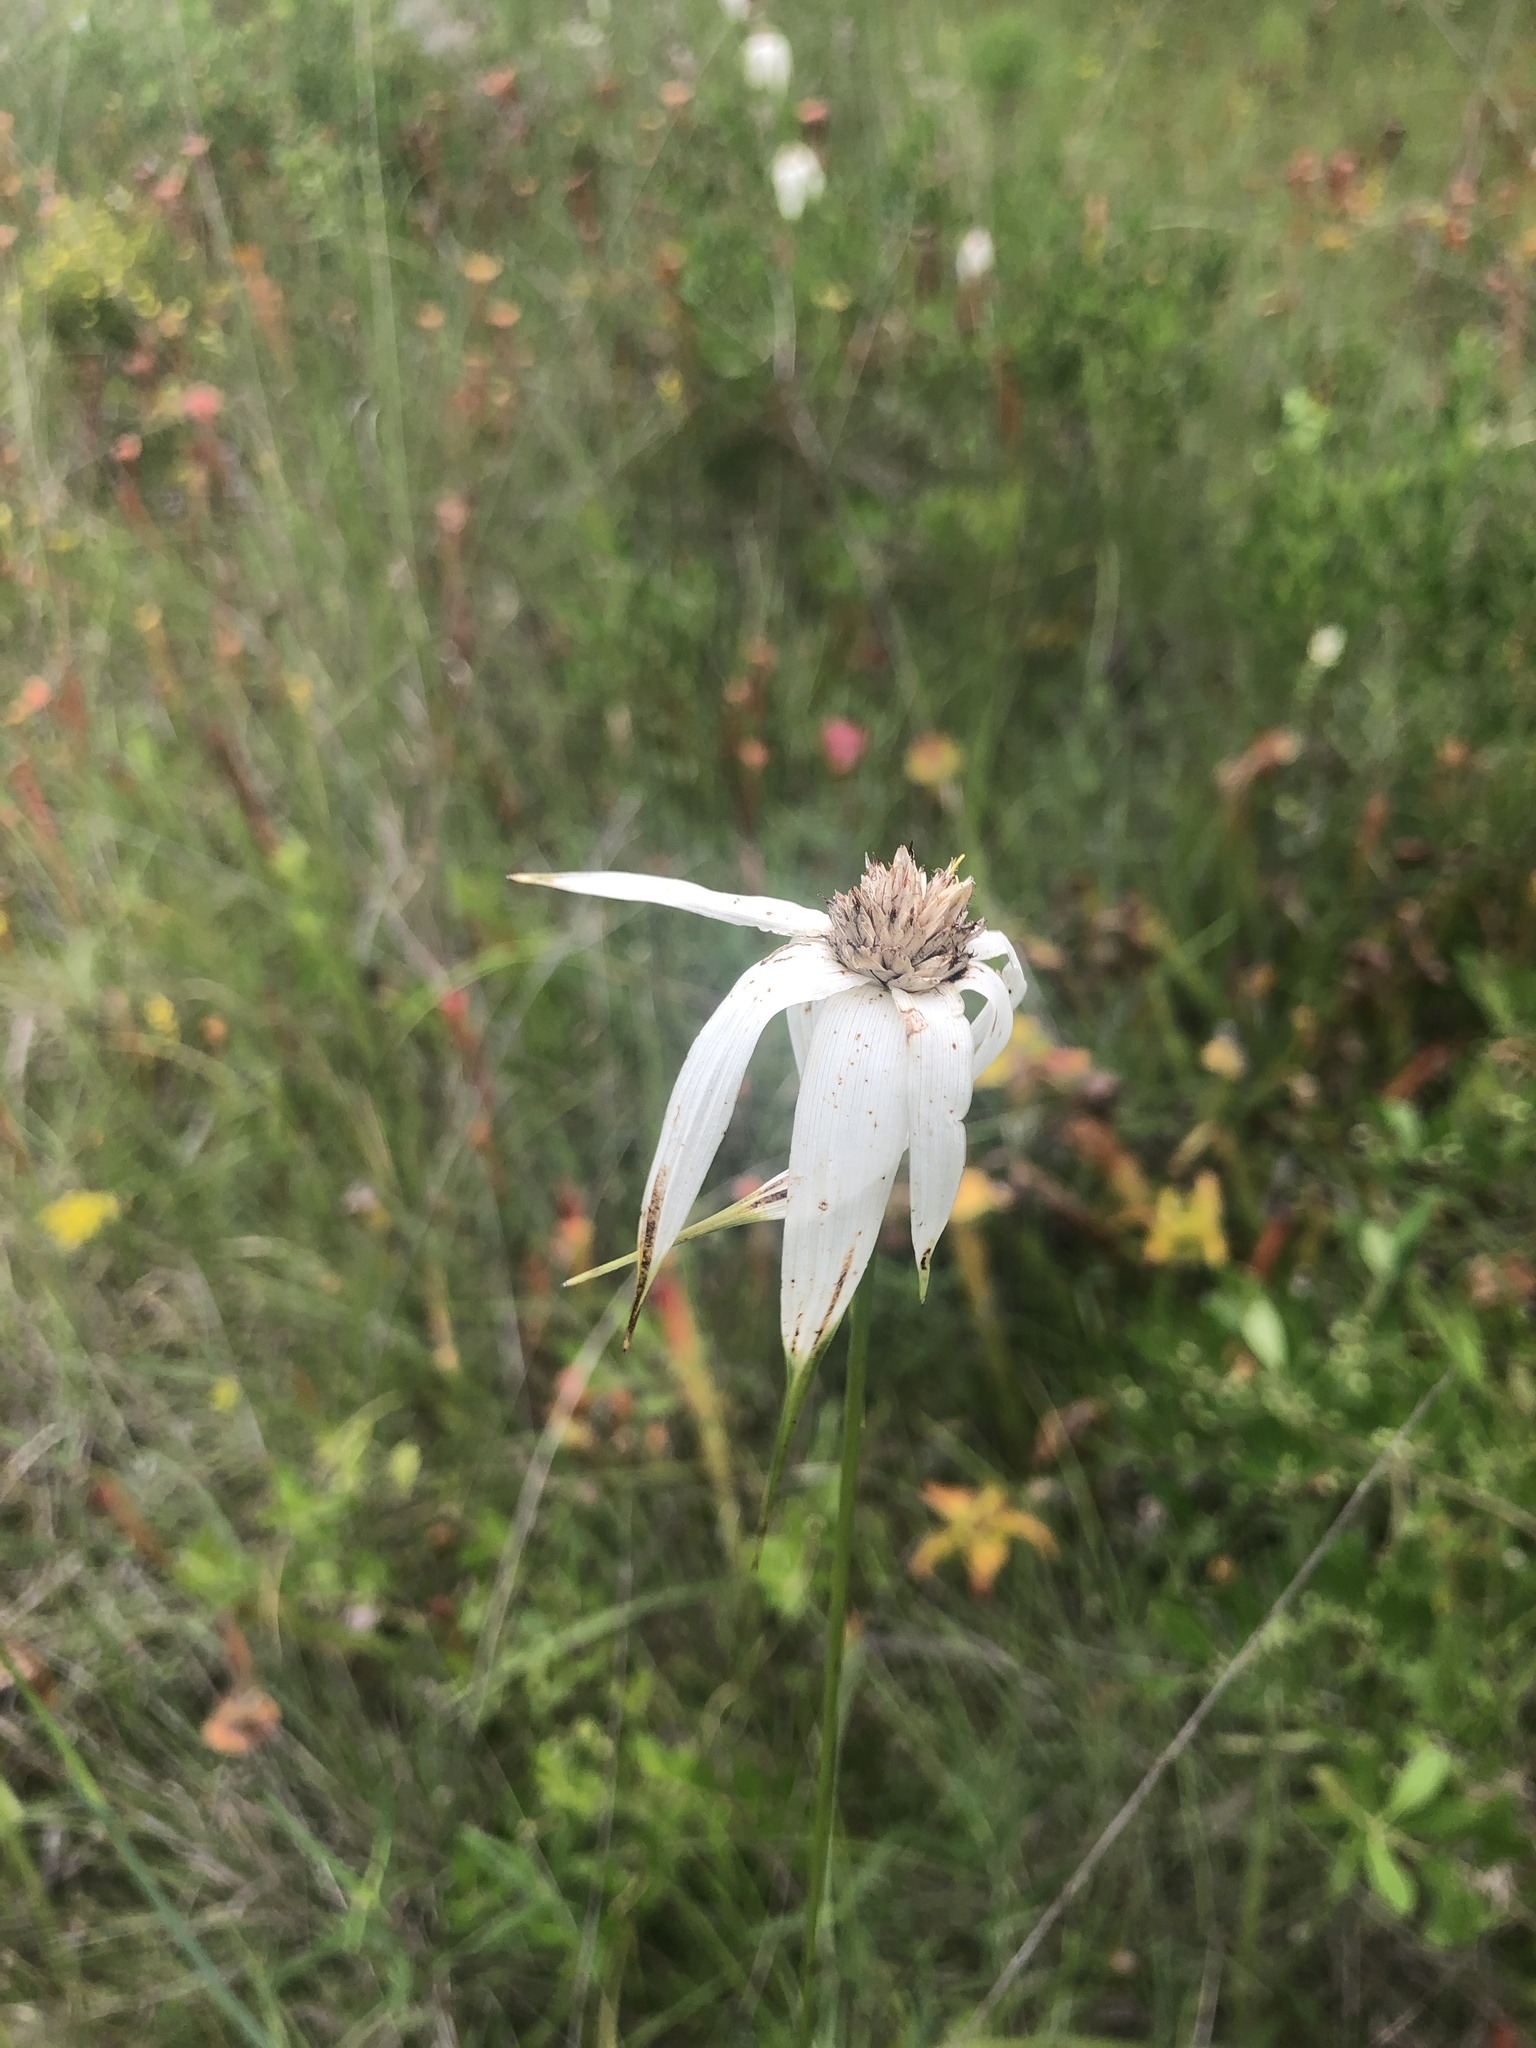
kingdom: Plantae
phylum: Tracheophyta
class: Liliopsida
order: Poales
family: Cyperaceae
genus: Rhynchospora
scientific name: Rhynchospora latifolia
